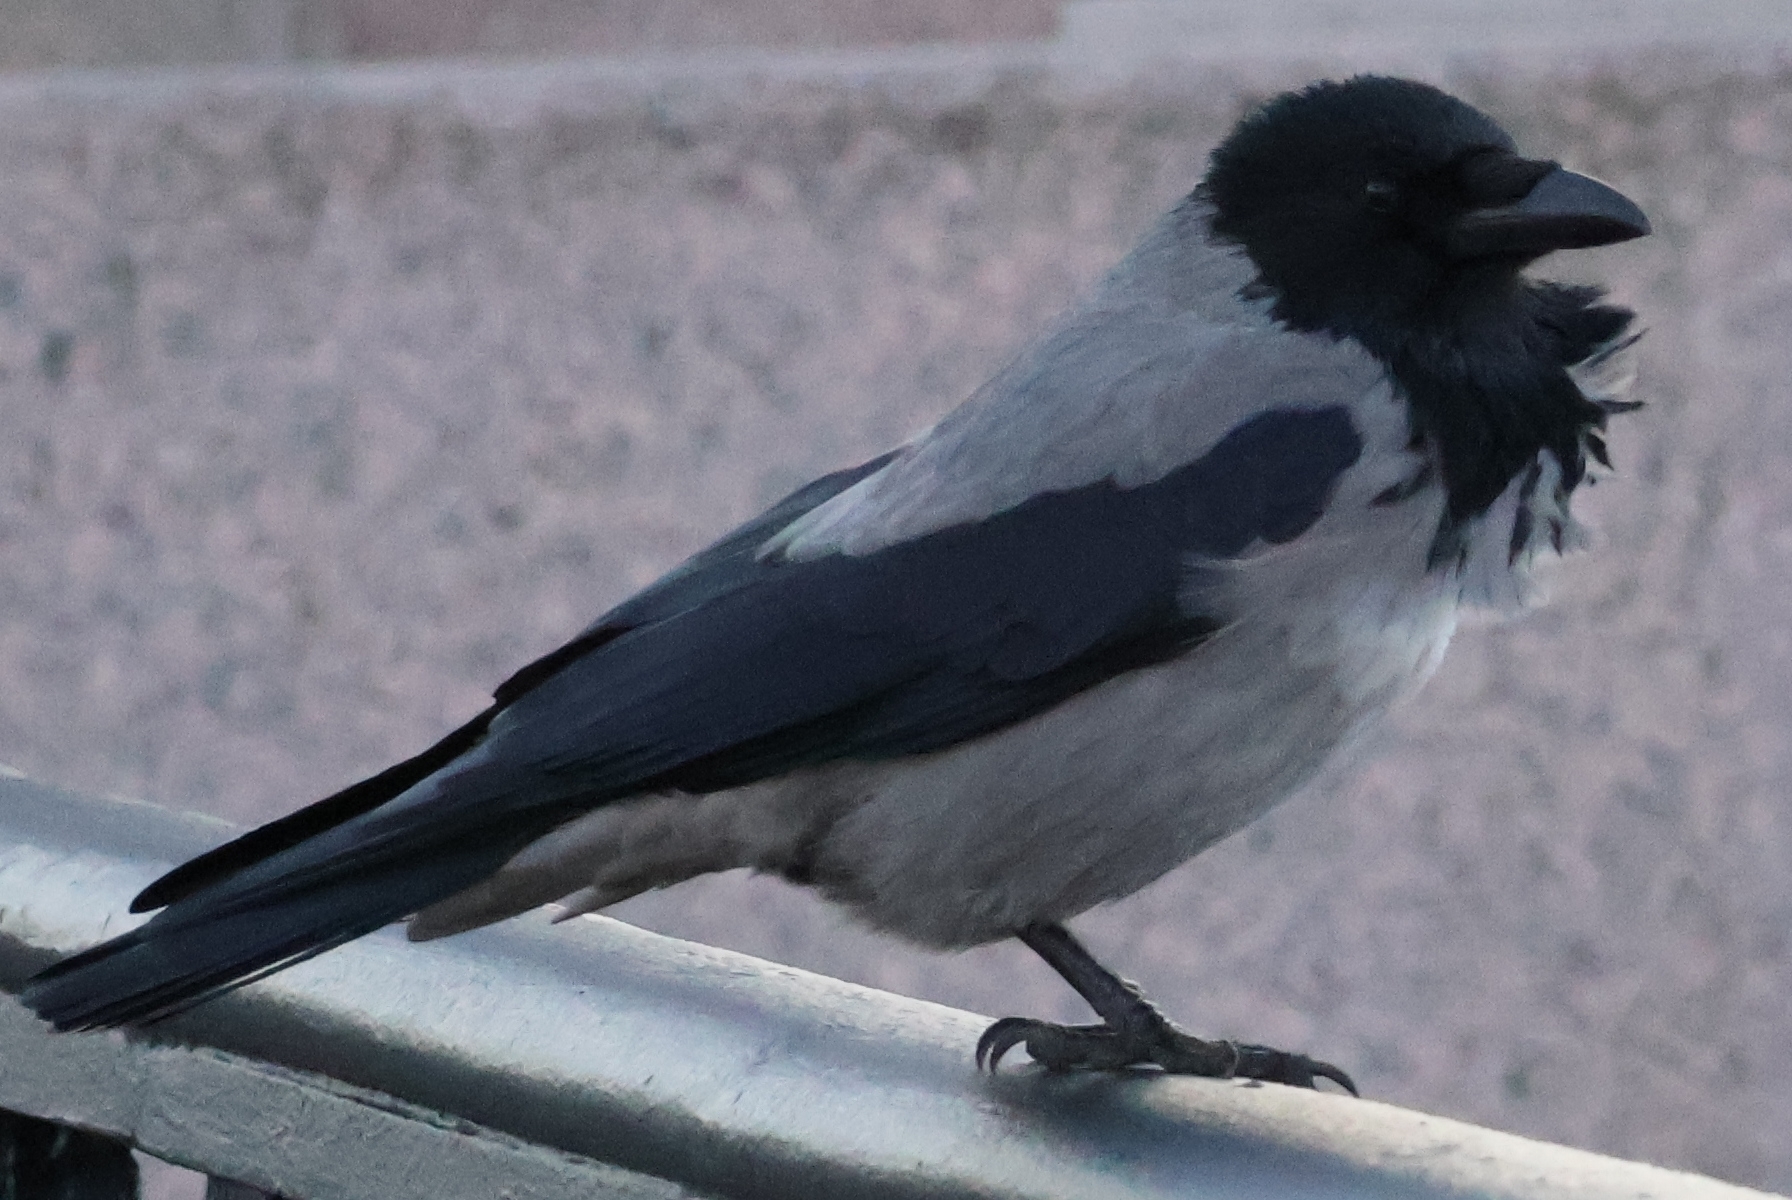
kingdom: Animalia
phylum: Chordata
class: Aves
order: Passeriformes
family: Corvidae
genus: Corvus
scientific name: Corvus cornix
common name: Hooded crow
